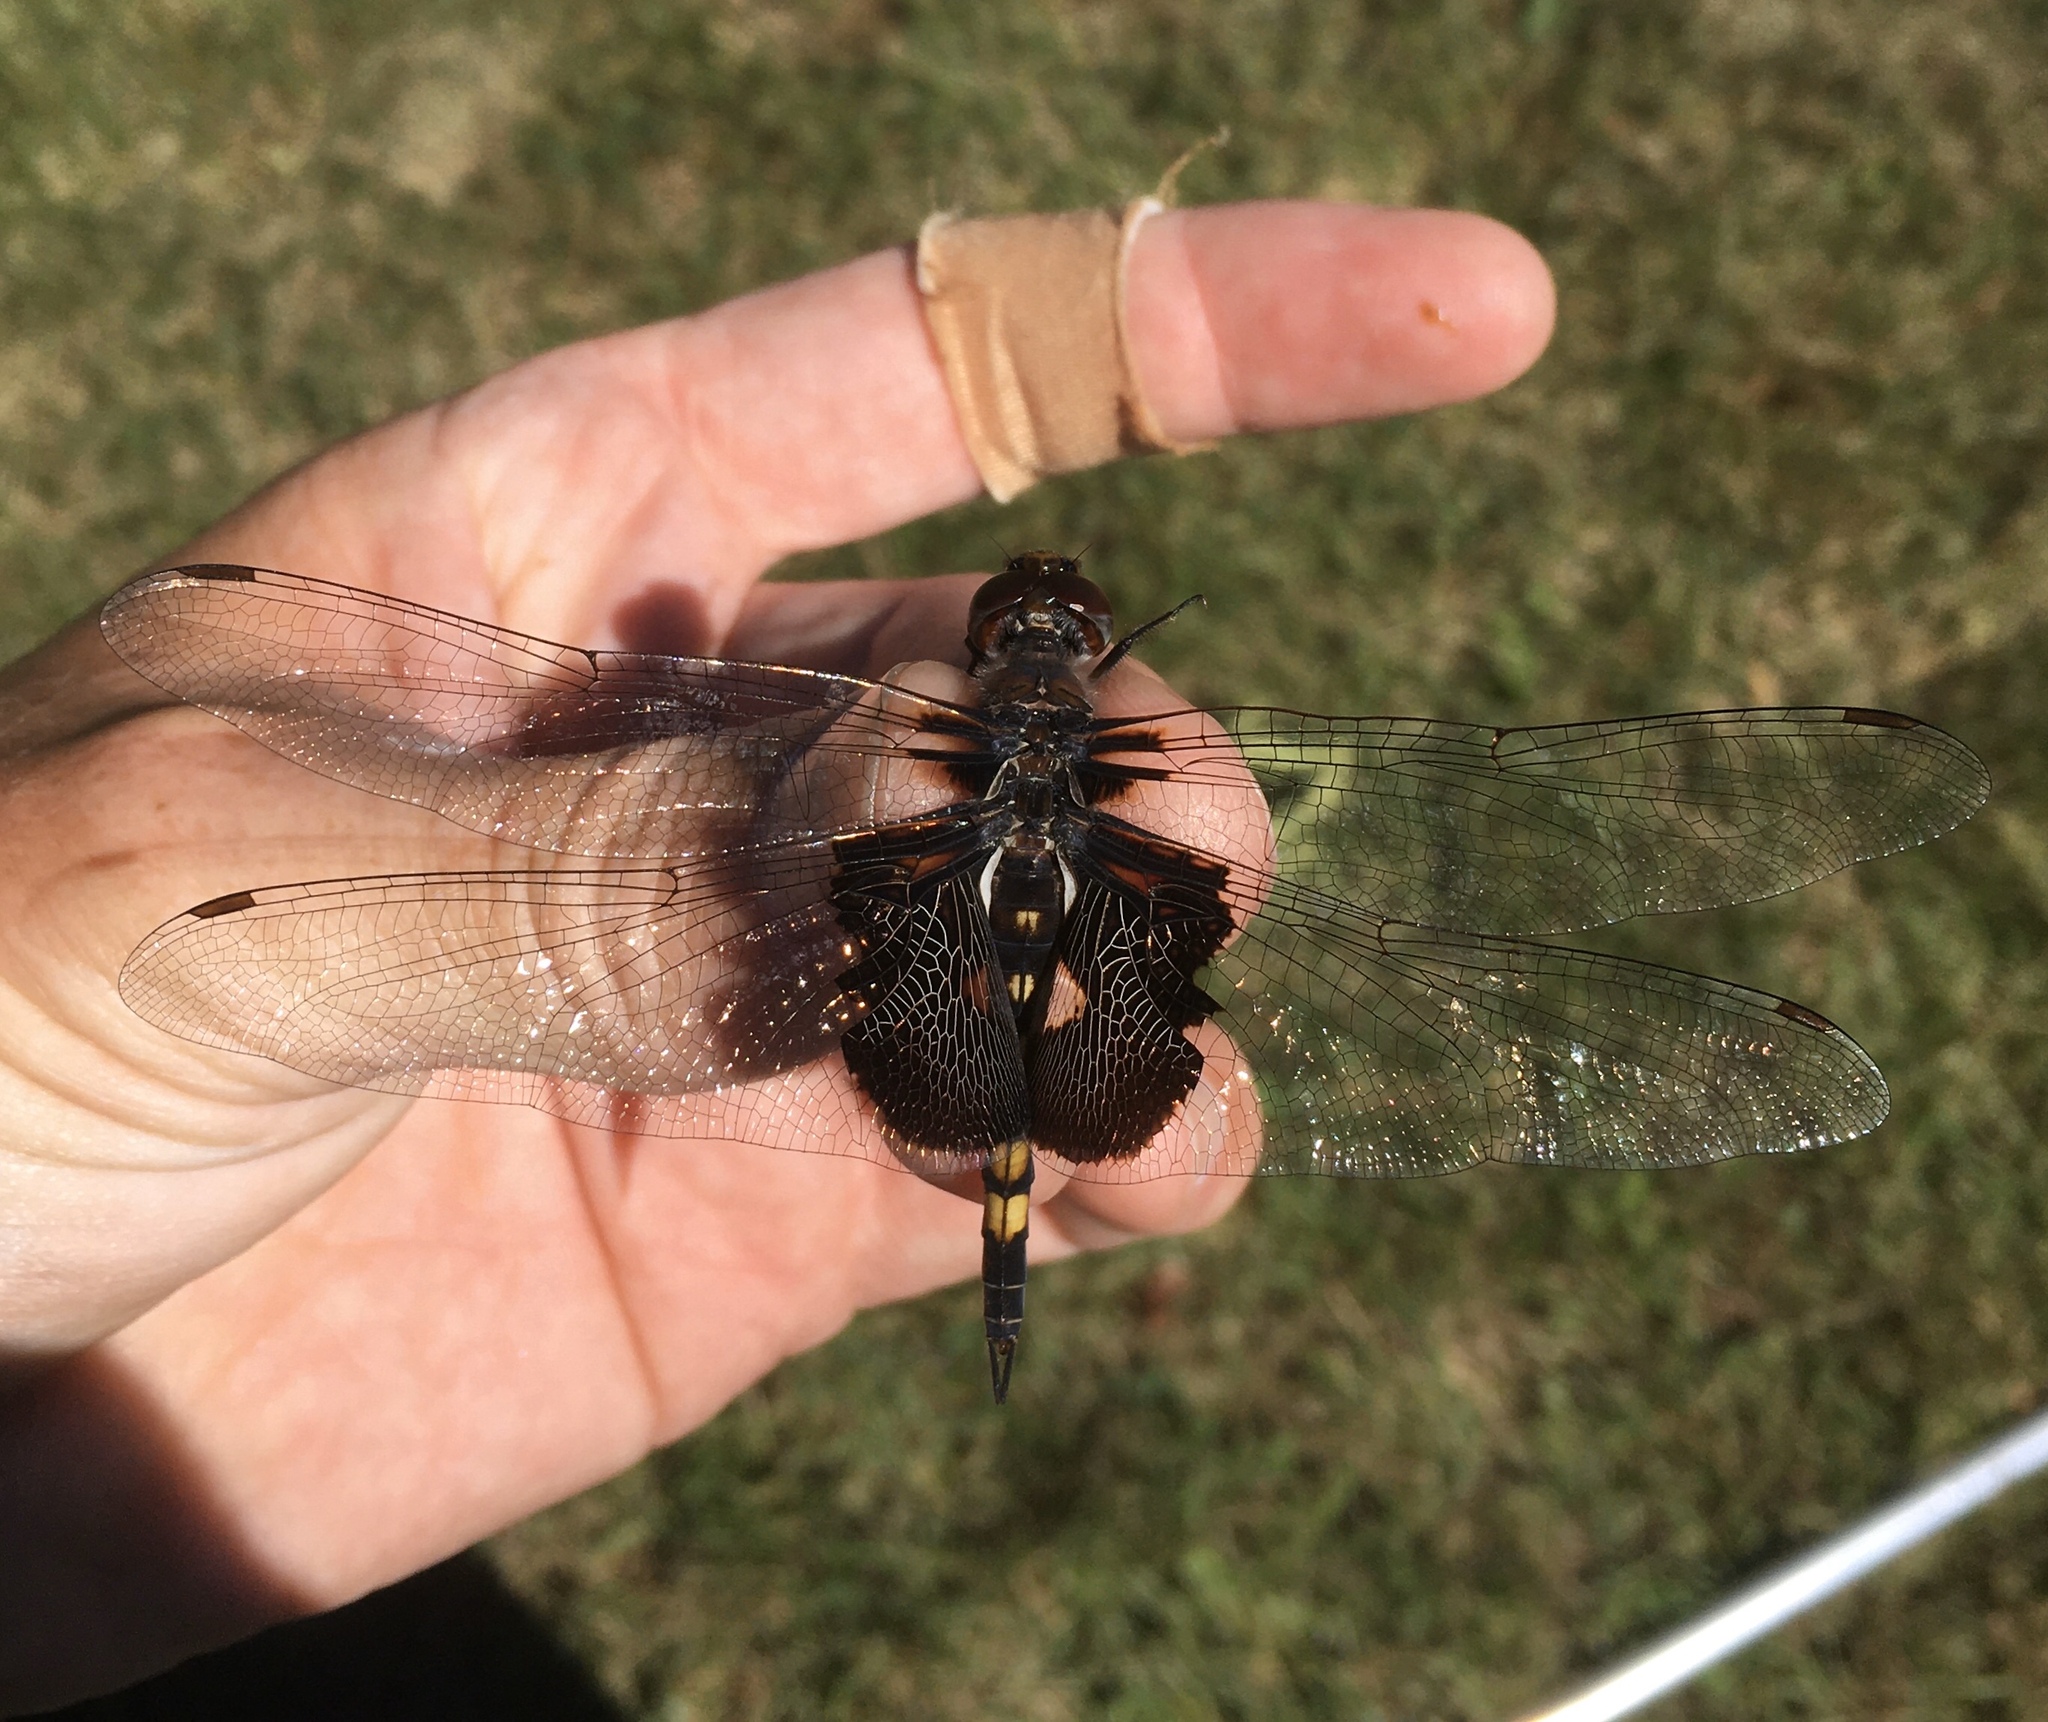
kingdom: Animalia
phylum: Arthropoda
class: Insecta
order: Odonata
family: Libellulidae
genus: Tramea
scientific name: Tramea lacerata
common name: Black saddlebags
